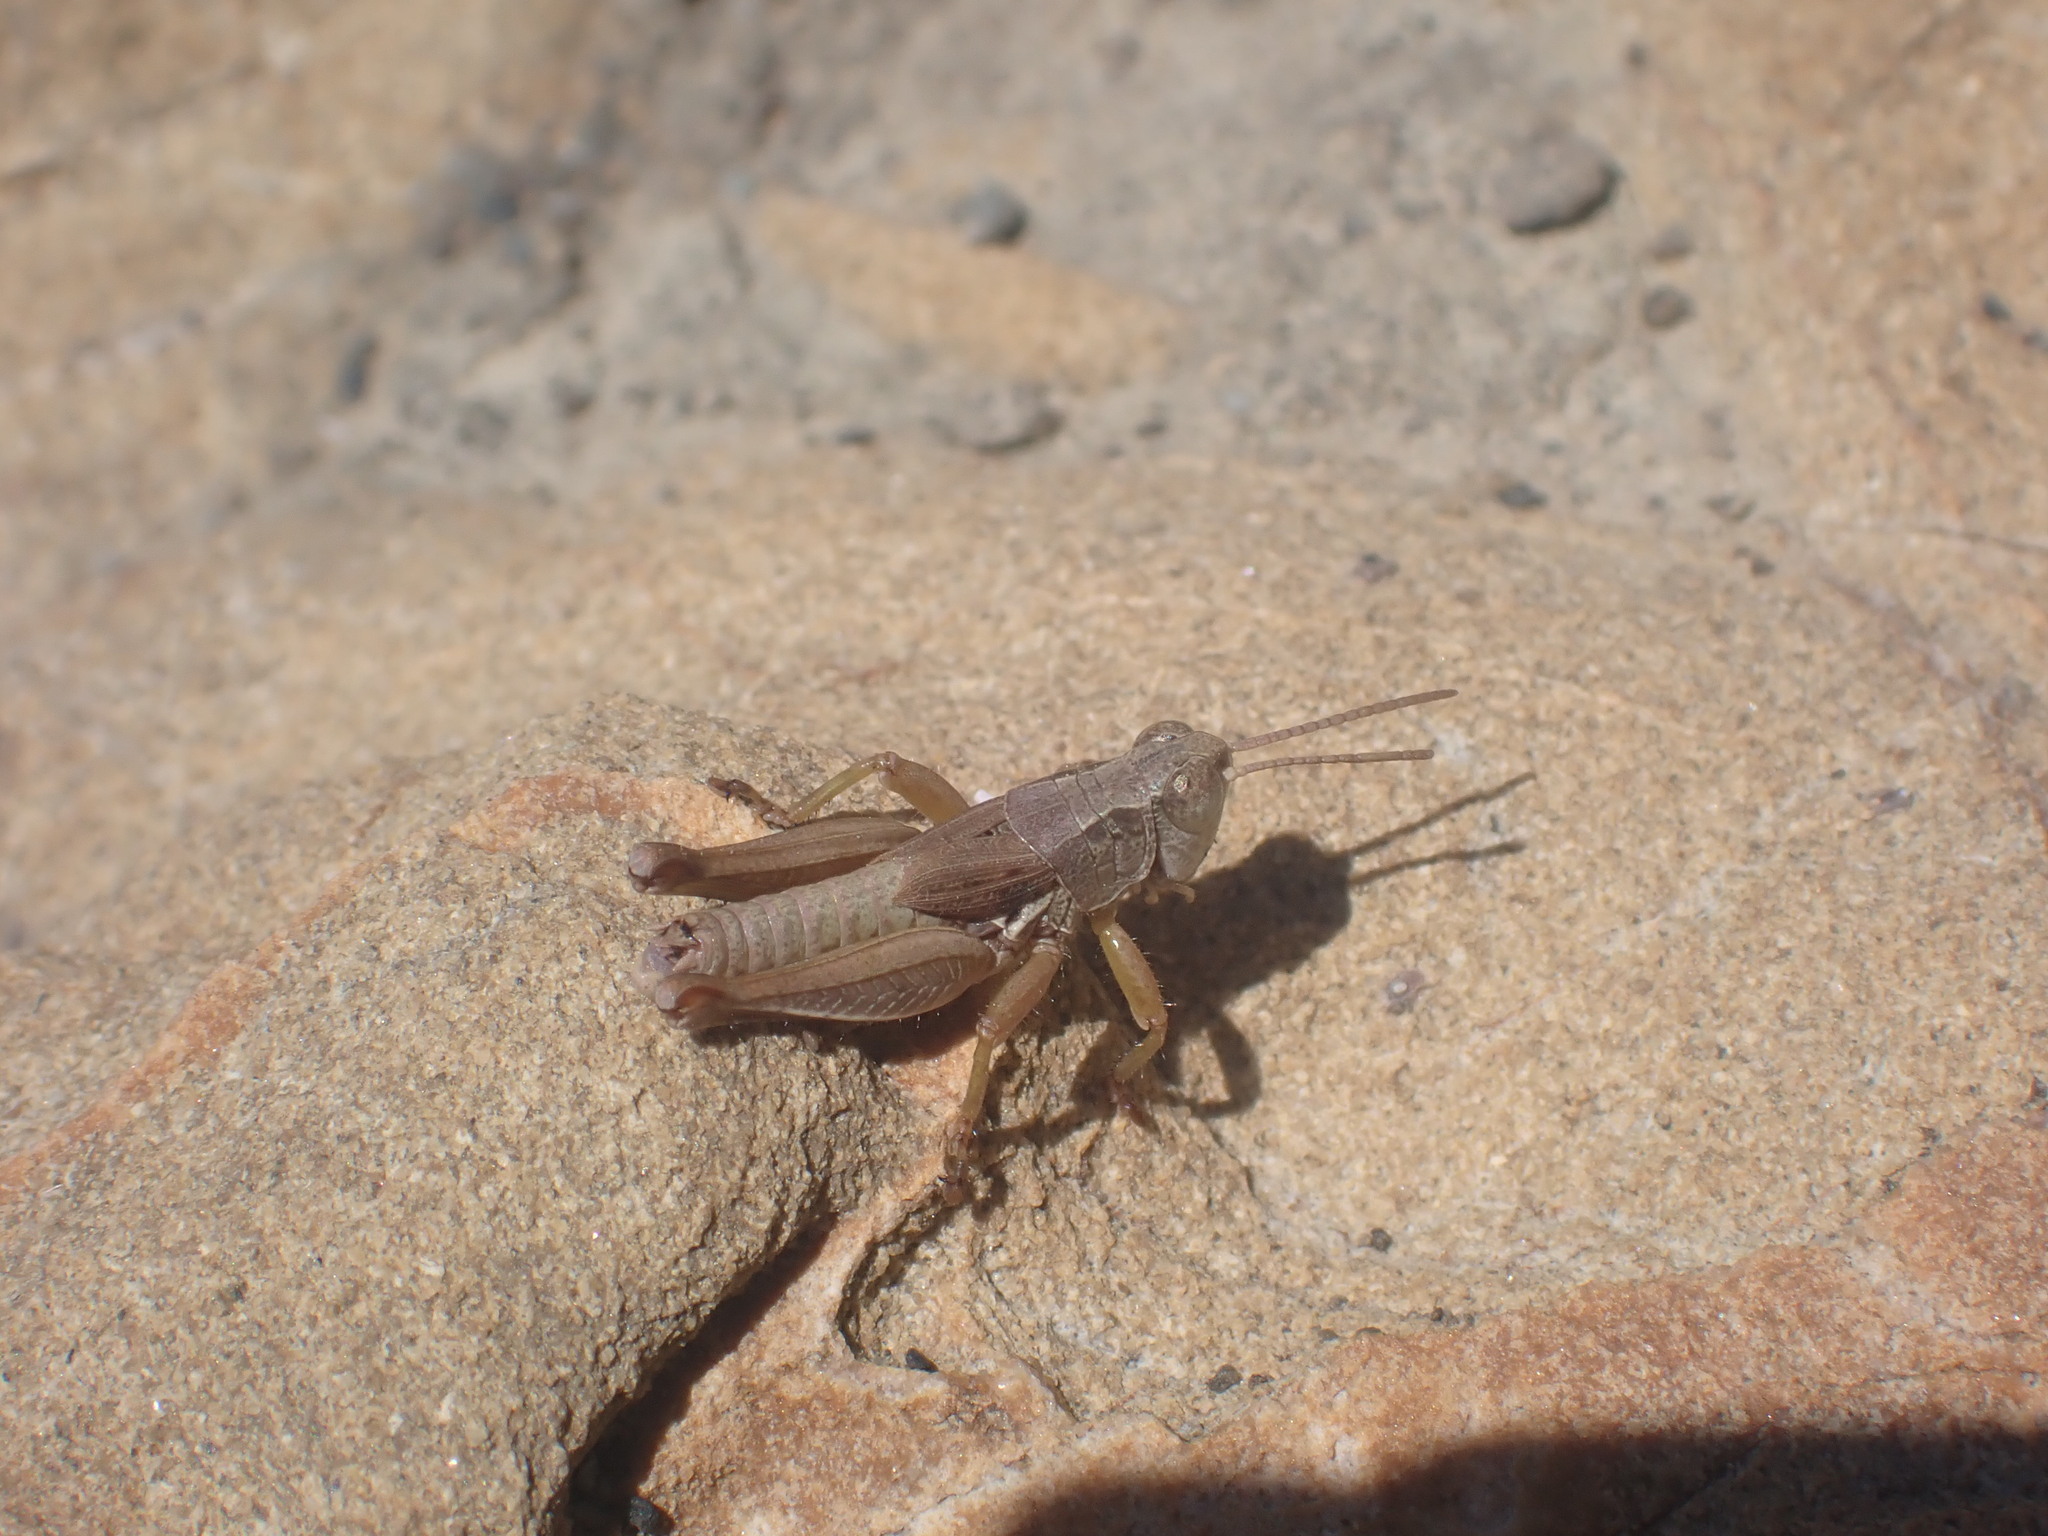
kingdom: Animalia
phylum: Arthropoda
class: Insecta
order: Orthoptera
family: Acrididae
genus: Phaulacridium
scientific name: Phaulacridium marginale
